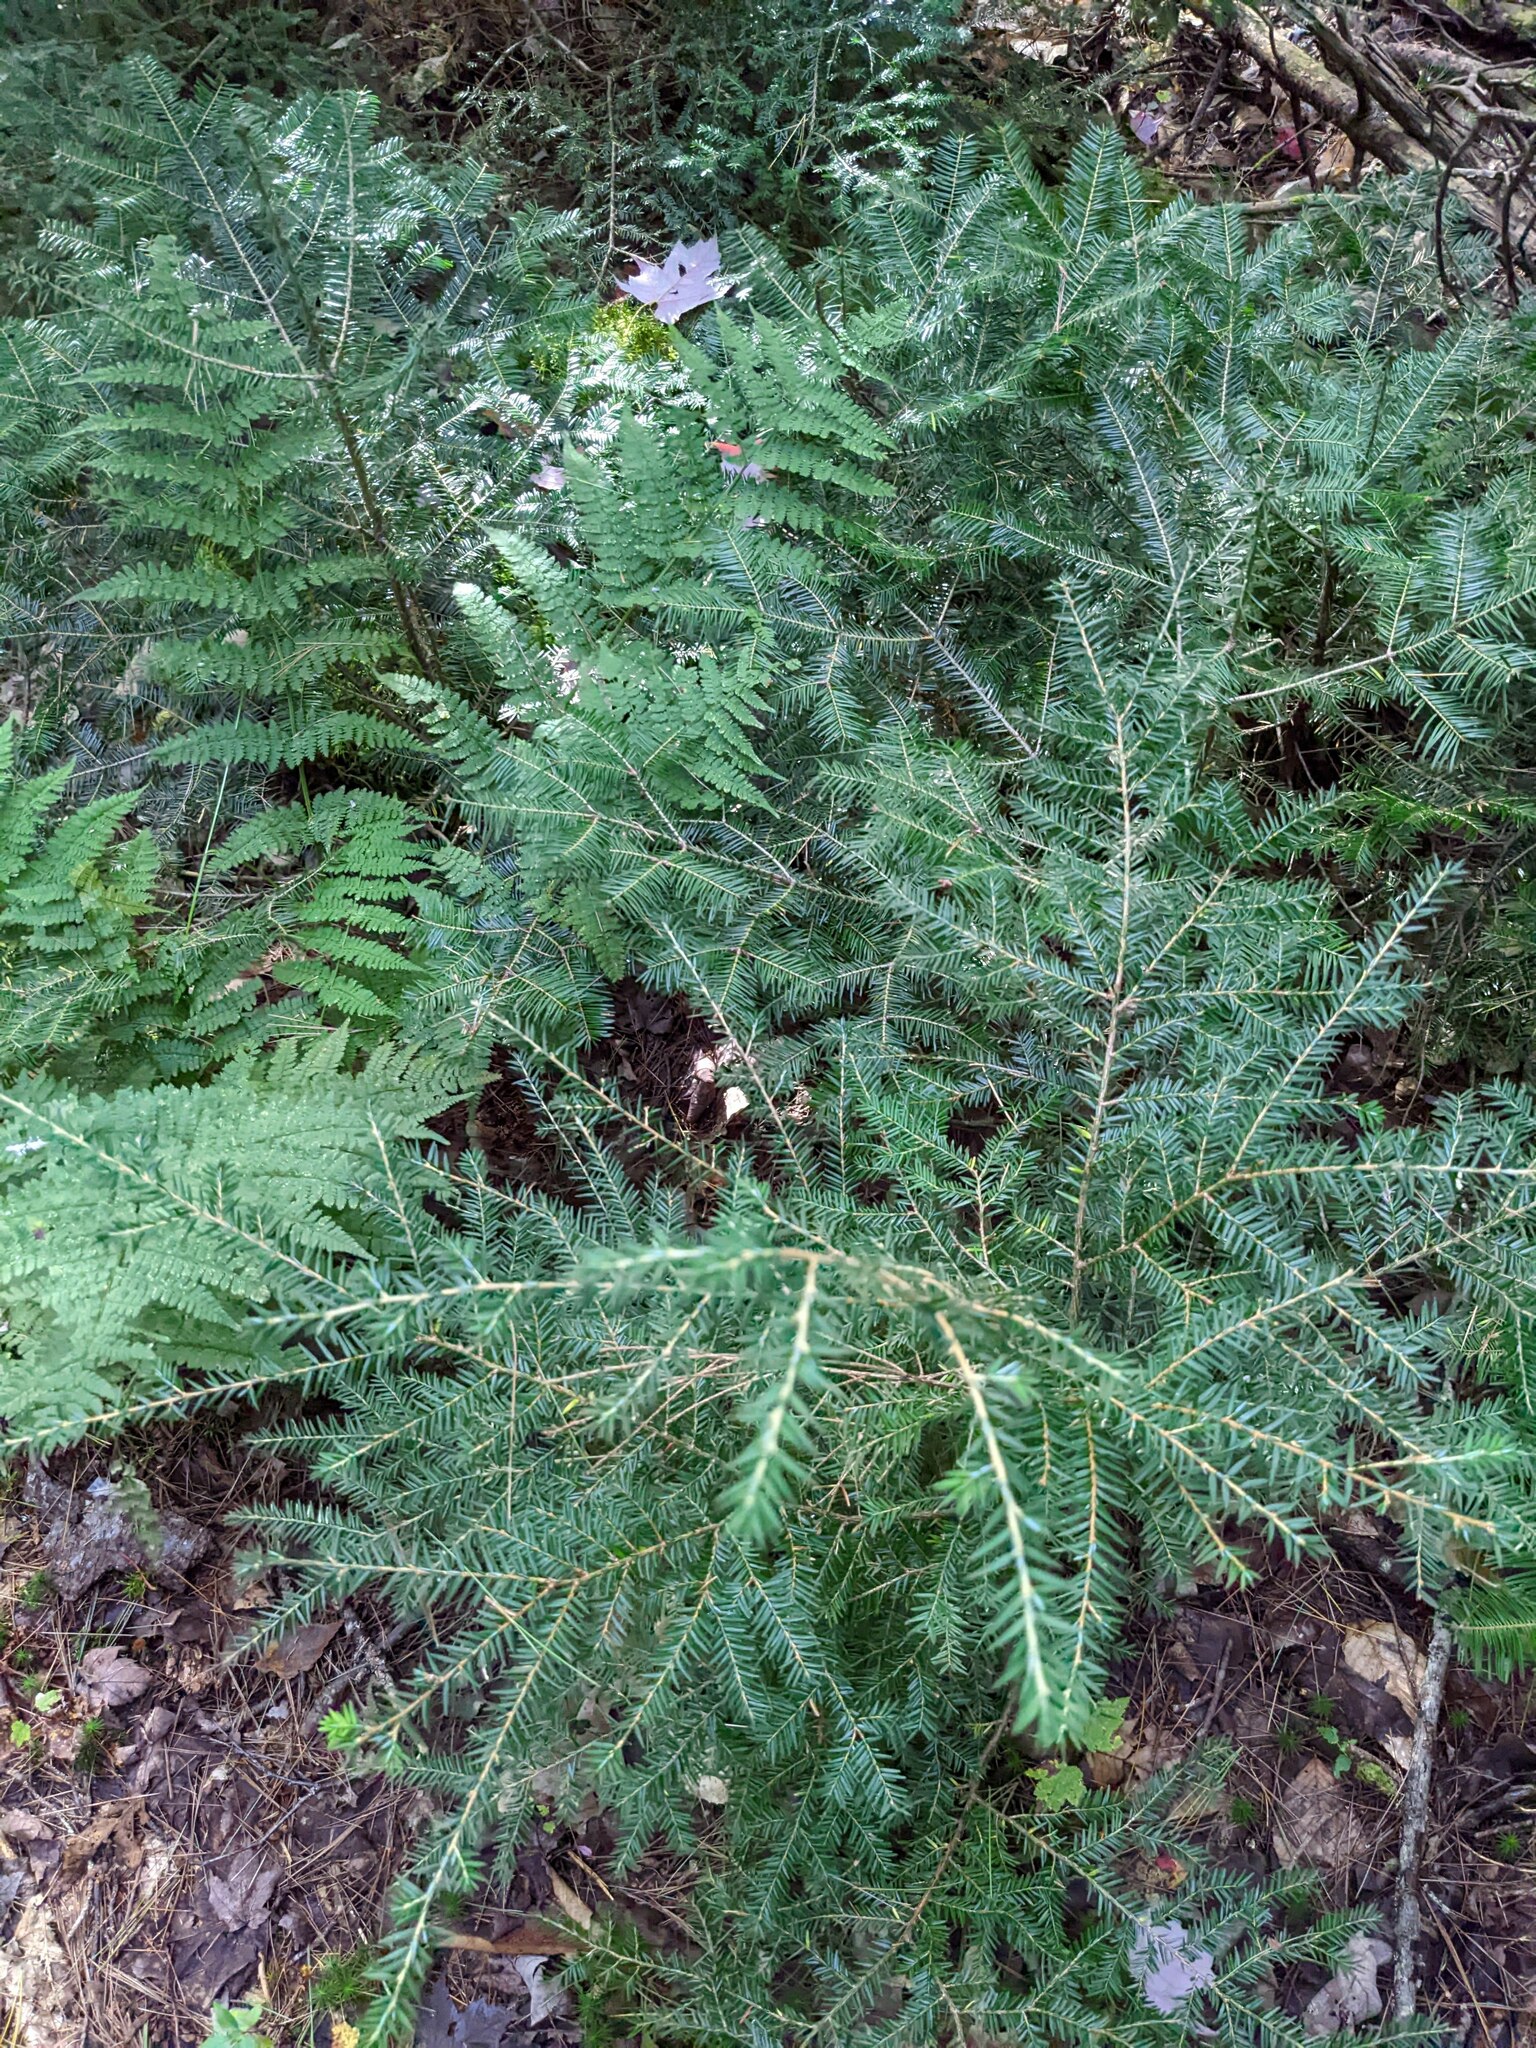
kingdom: Plantae
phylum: Tracheophyta
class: Pinopsida
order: Pinales
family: Pinaceae
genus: Tsuga
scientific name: Tsuga canadensis
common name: Eastern hemlock
